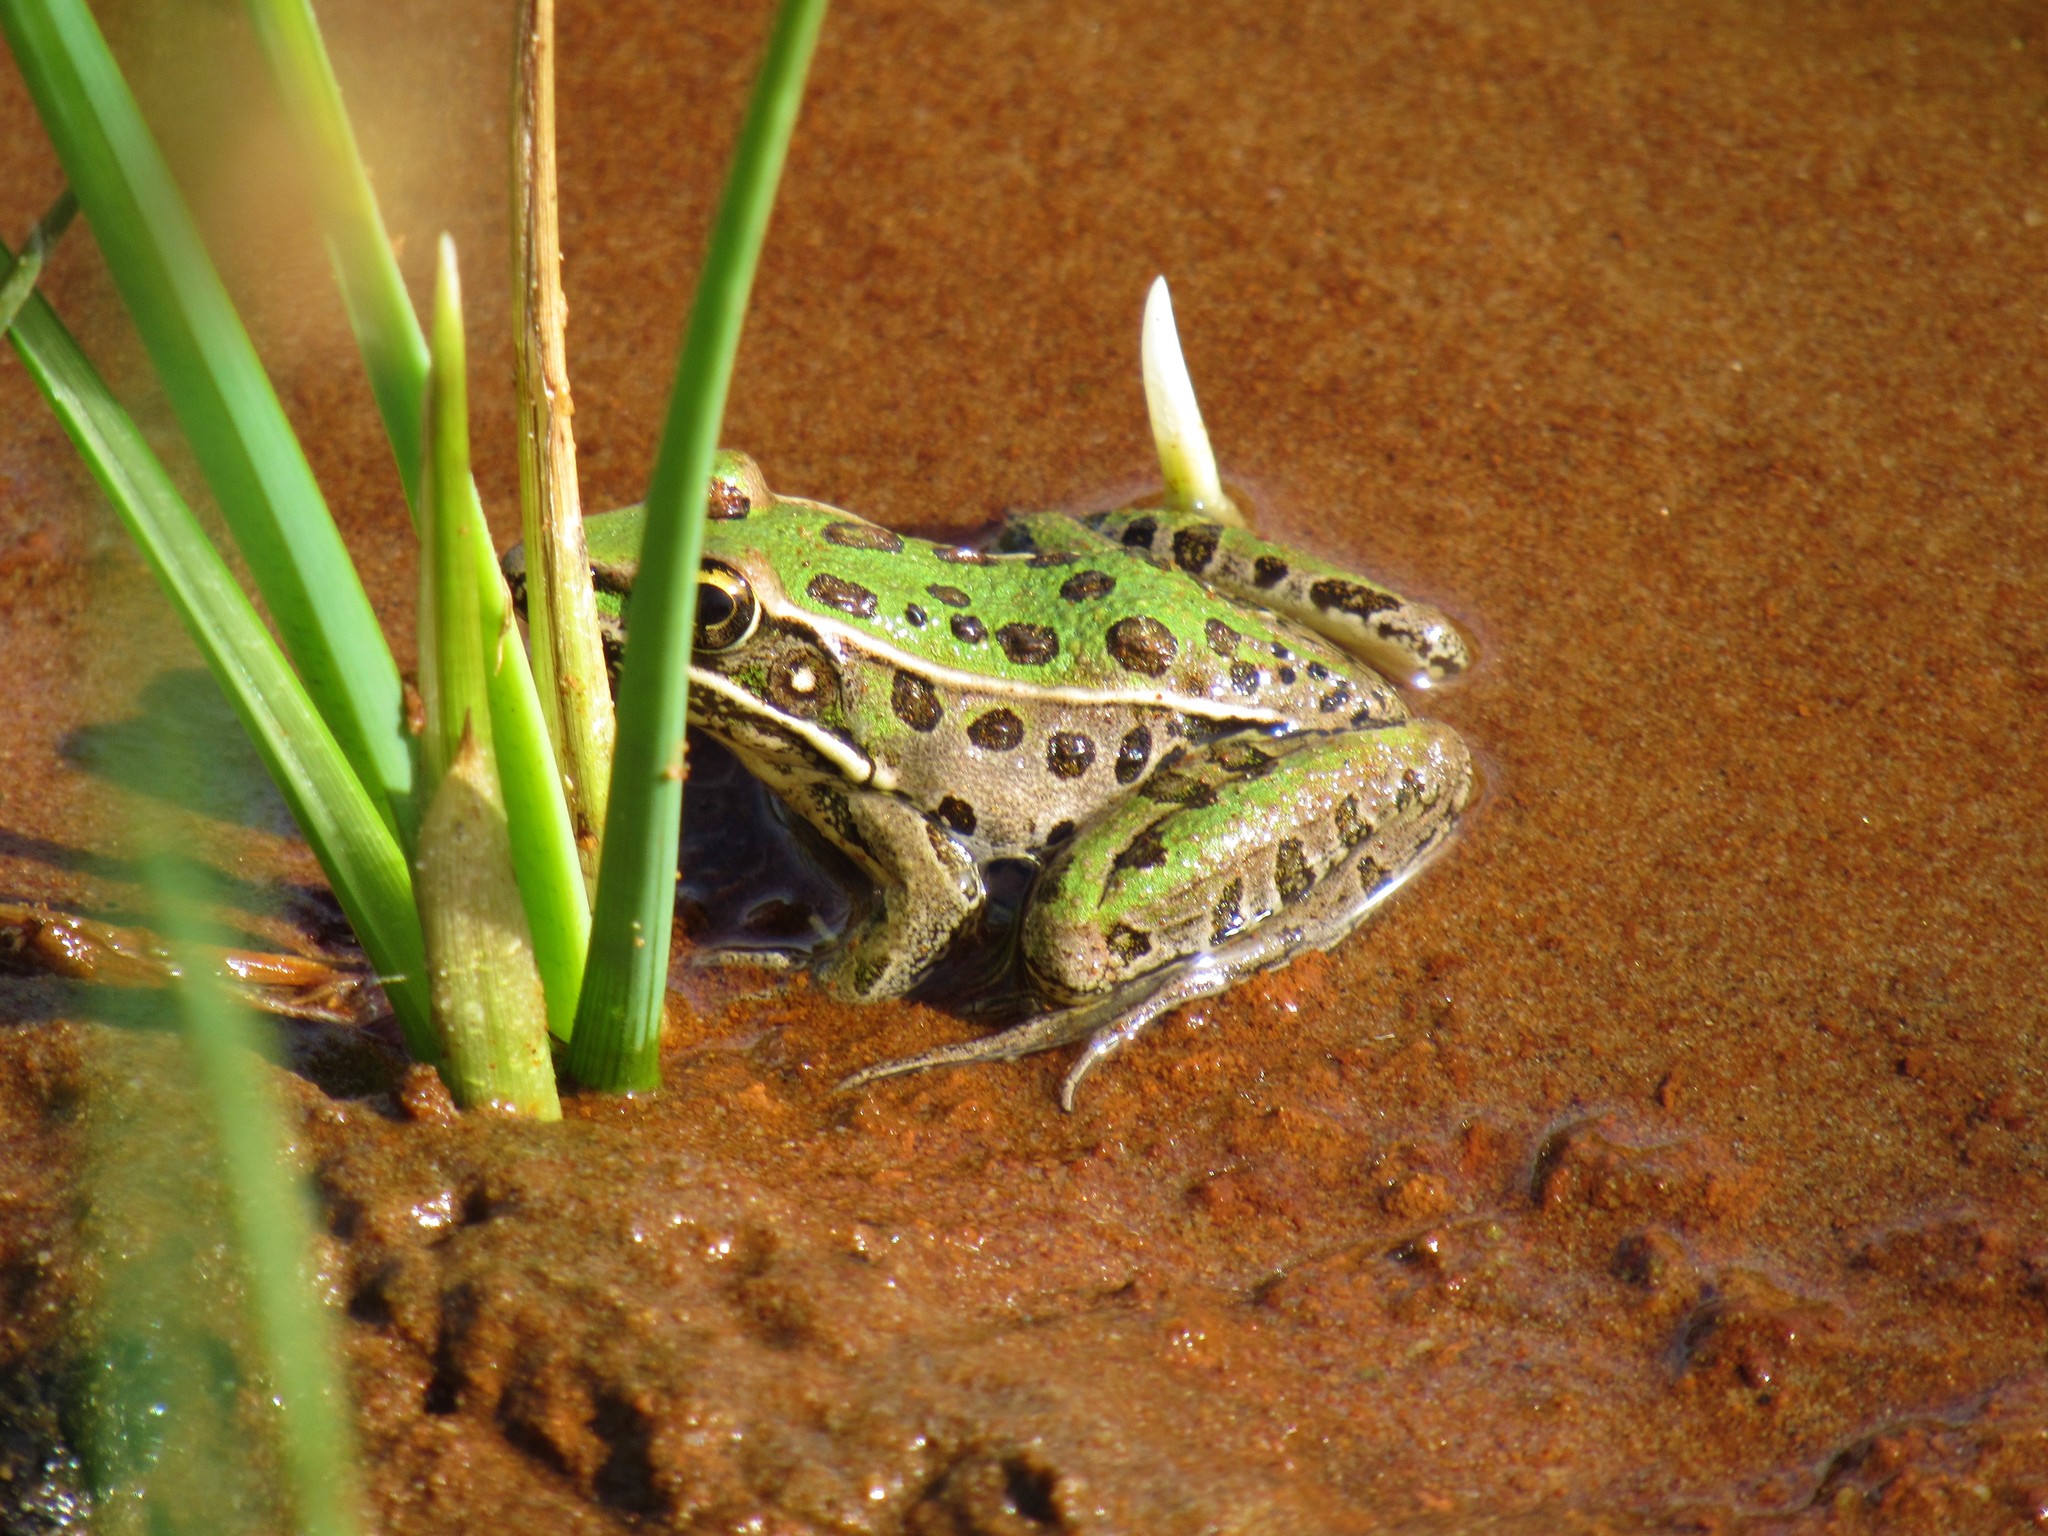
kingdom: Animalia
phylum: Chordata
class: Amphibia
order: Anura
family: Ranidae
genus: Lithobates
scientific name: Lithobates sphenocephalus
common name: Southern leopard frog
